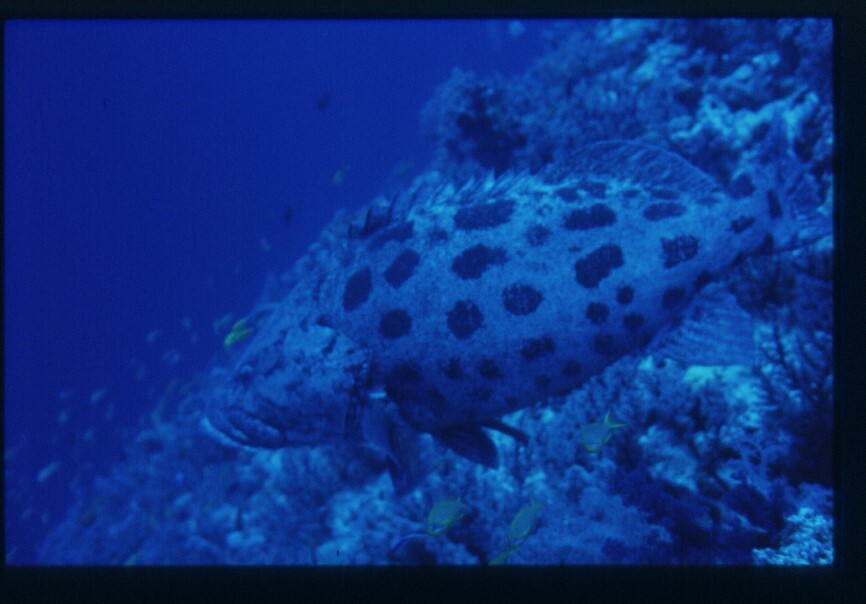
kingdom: Animalia
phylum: Chordata
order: Perciformes
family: Serranidae
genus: Epinephelus
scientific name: Epinephelus tukula
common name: Potato cod
